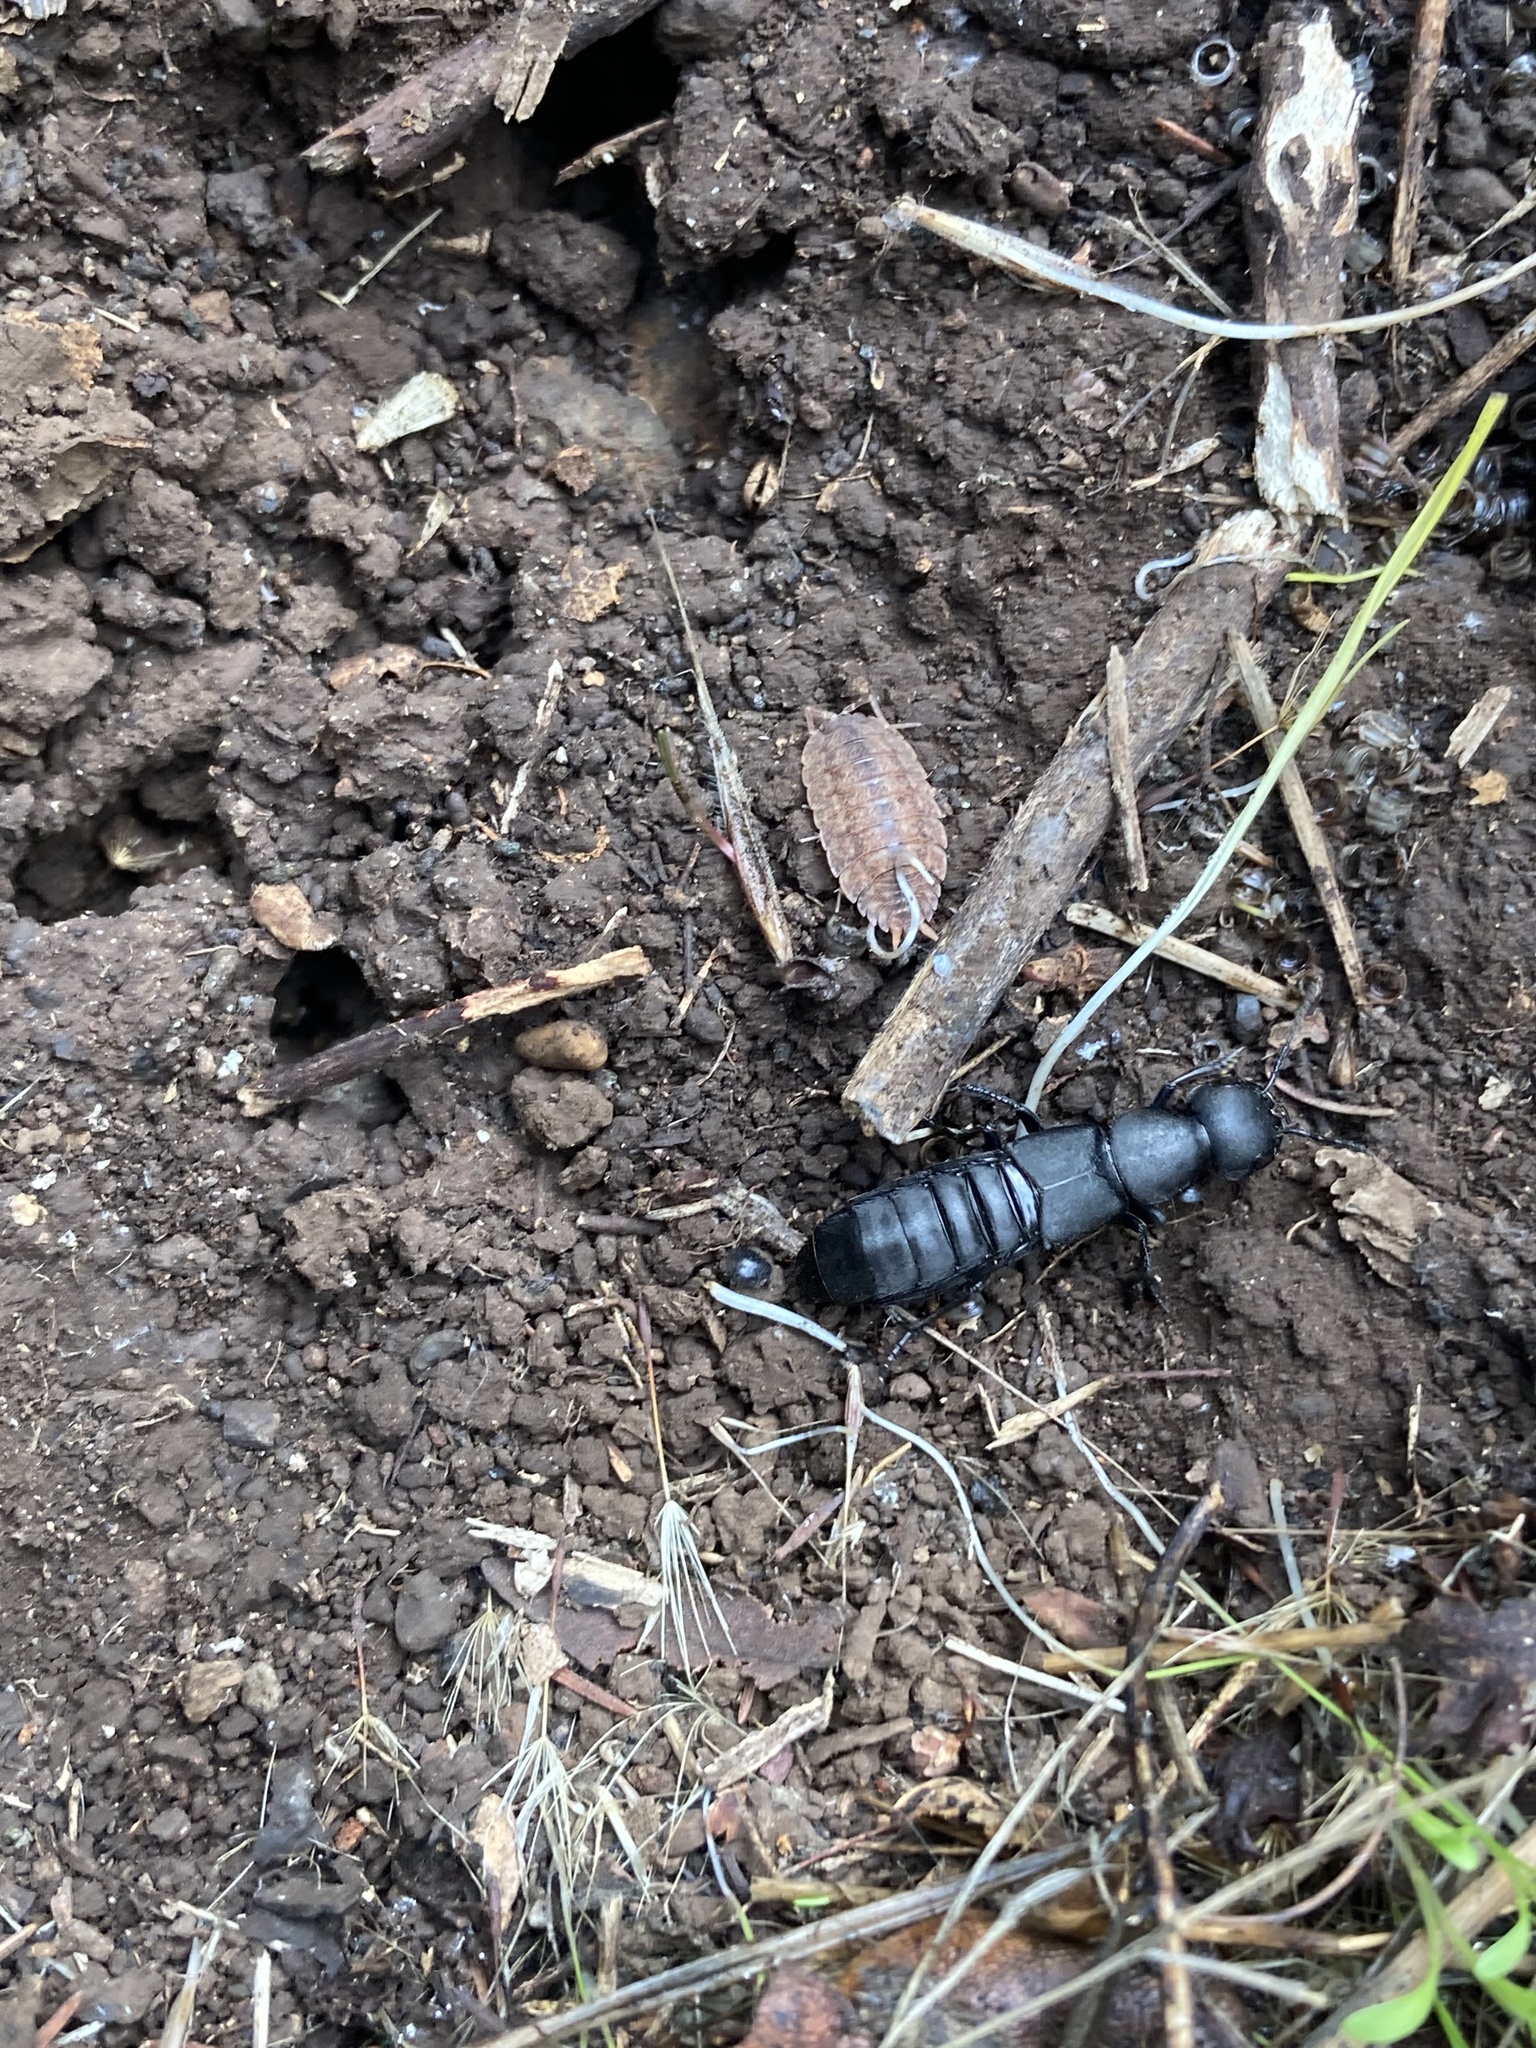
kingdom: Animalia
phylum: Arthropoda
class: Insecta
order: Coleoptera
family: Staphylinidae
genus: Ocypus
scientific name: Ocypus olens
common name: Devil's coach-horse
